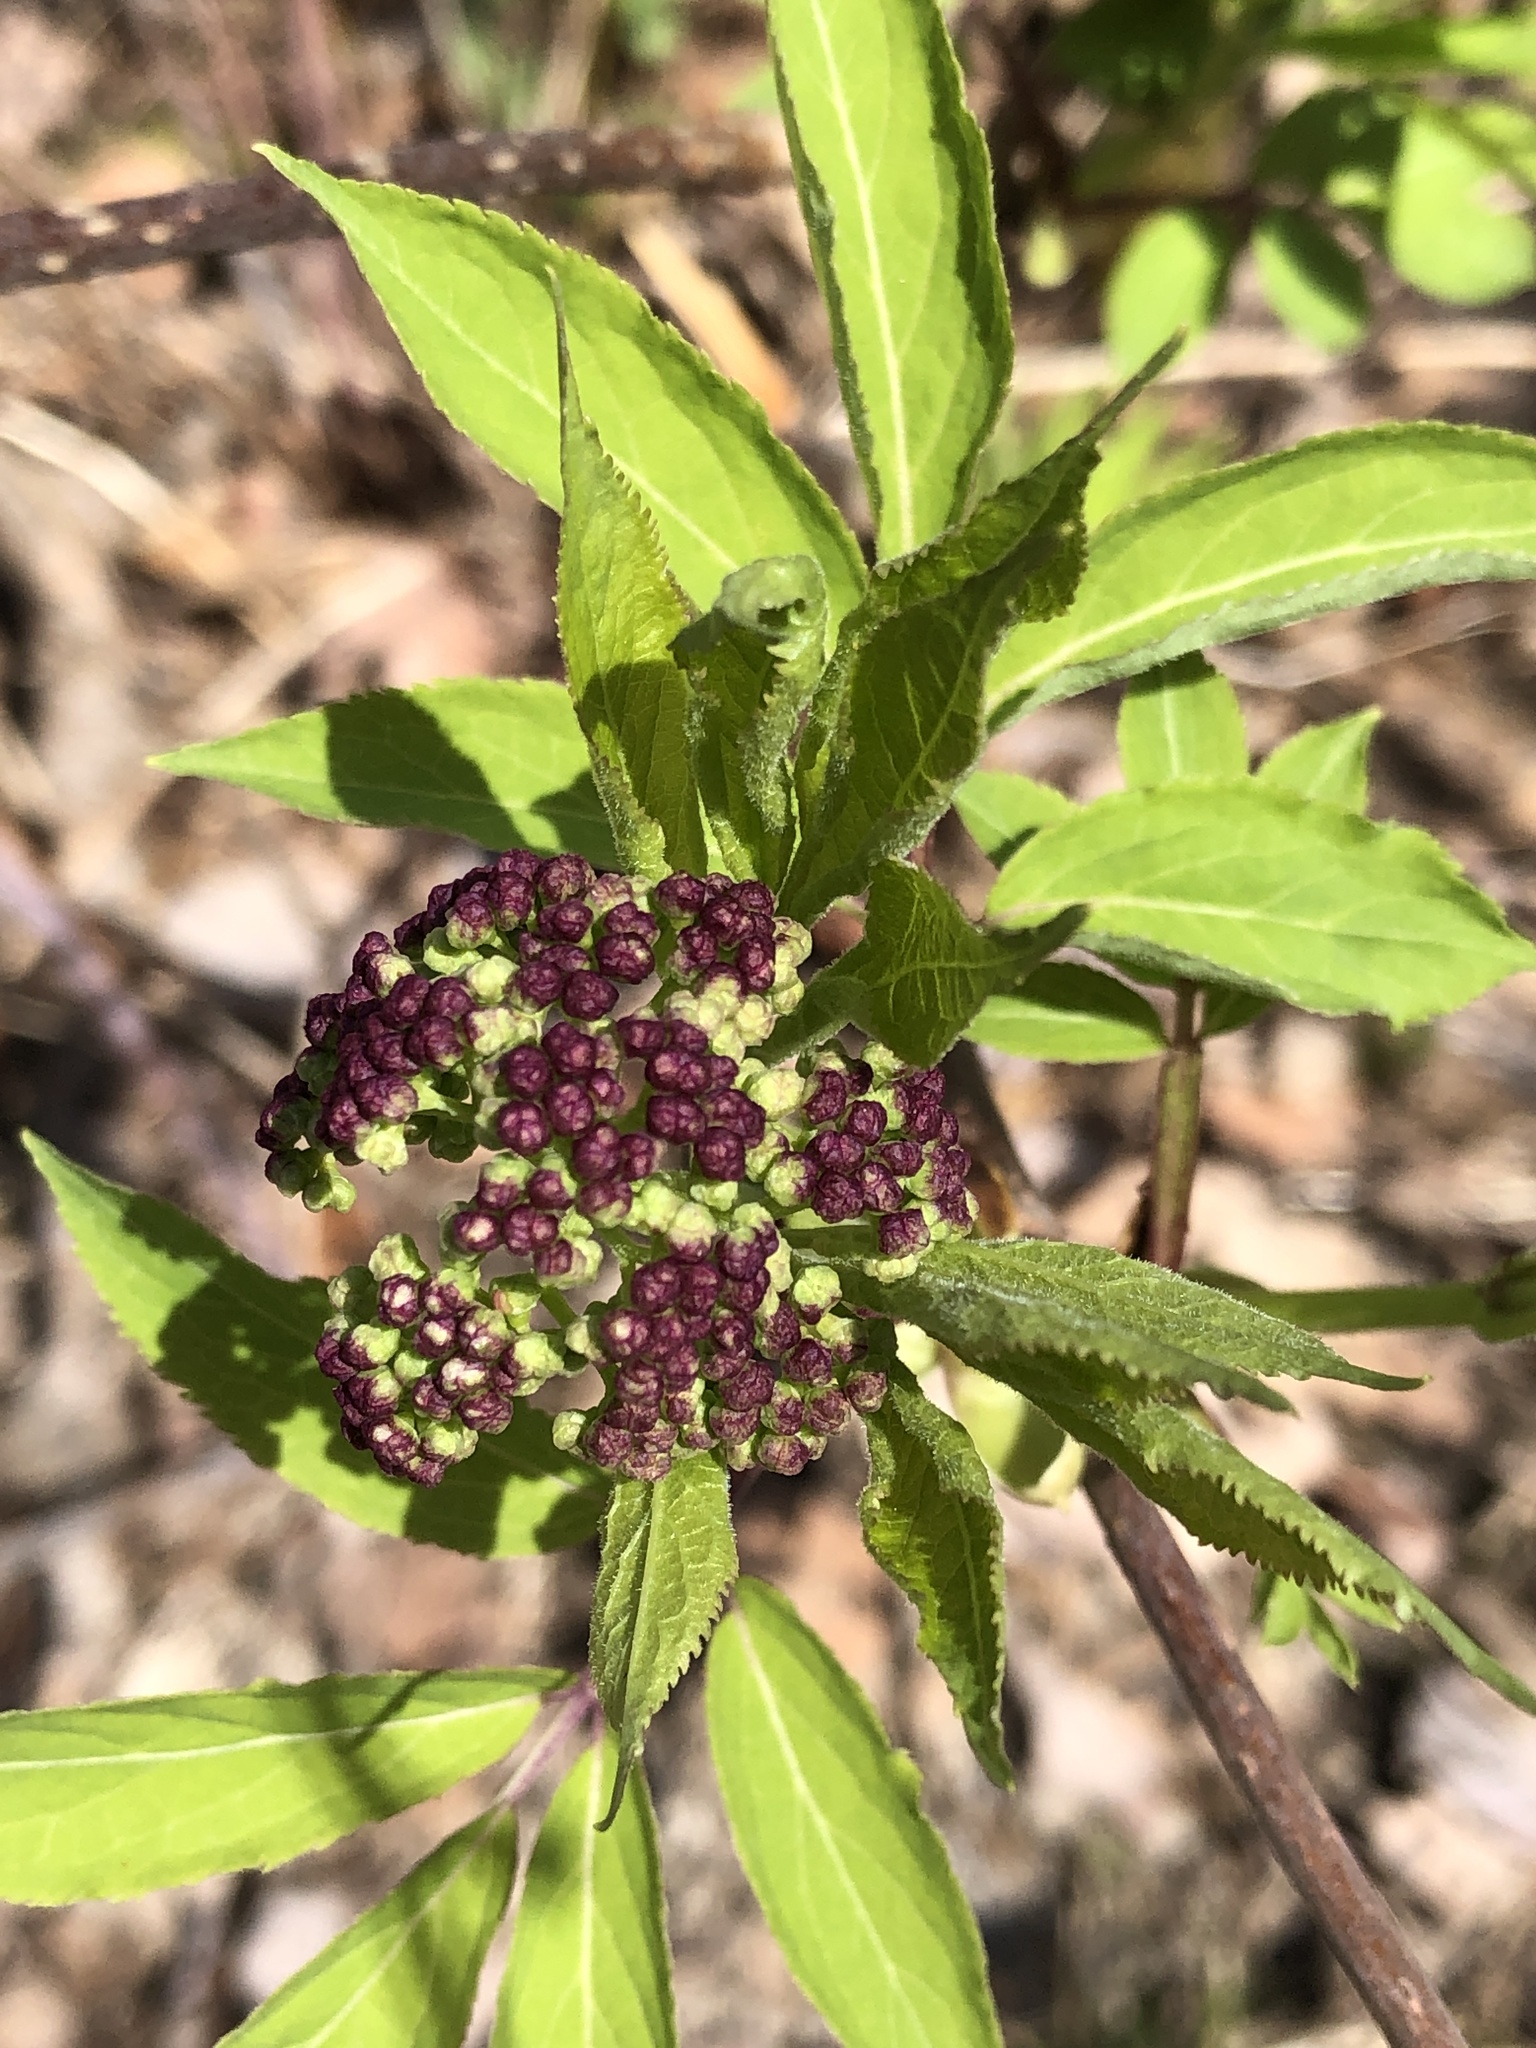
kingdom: Plantae
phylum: Tracheophyta
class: Magnoliopsida
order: Dipsacales
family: Viburnaceae
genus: Sambucus
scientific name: Sambucus racemosa
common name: Red-berried elder
